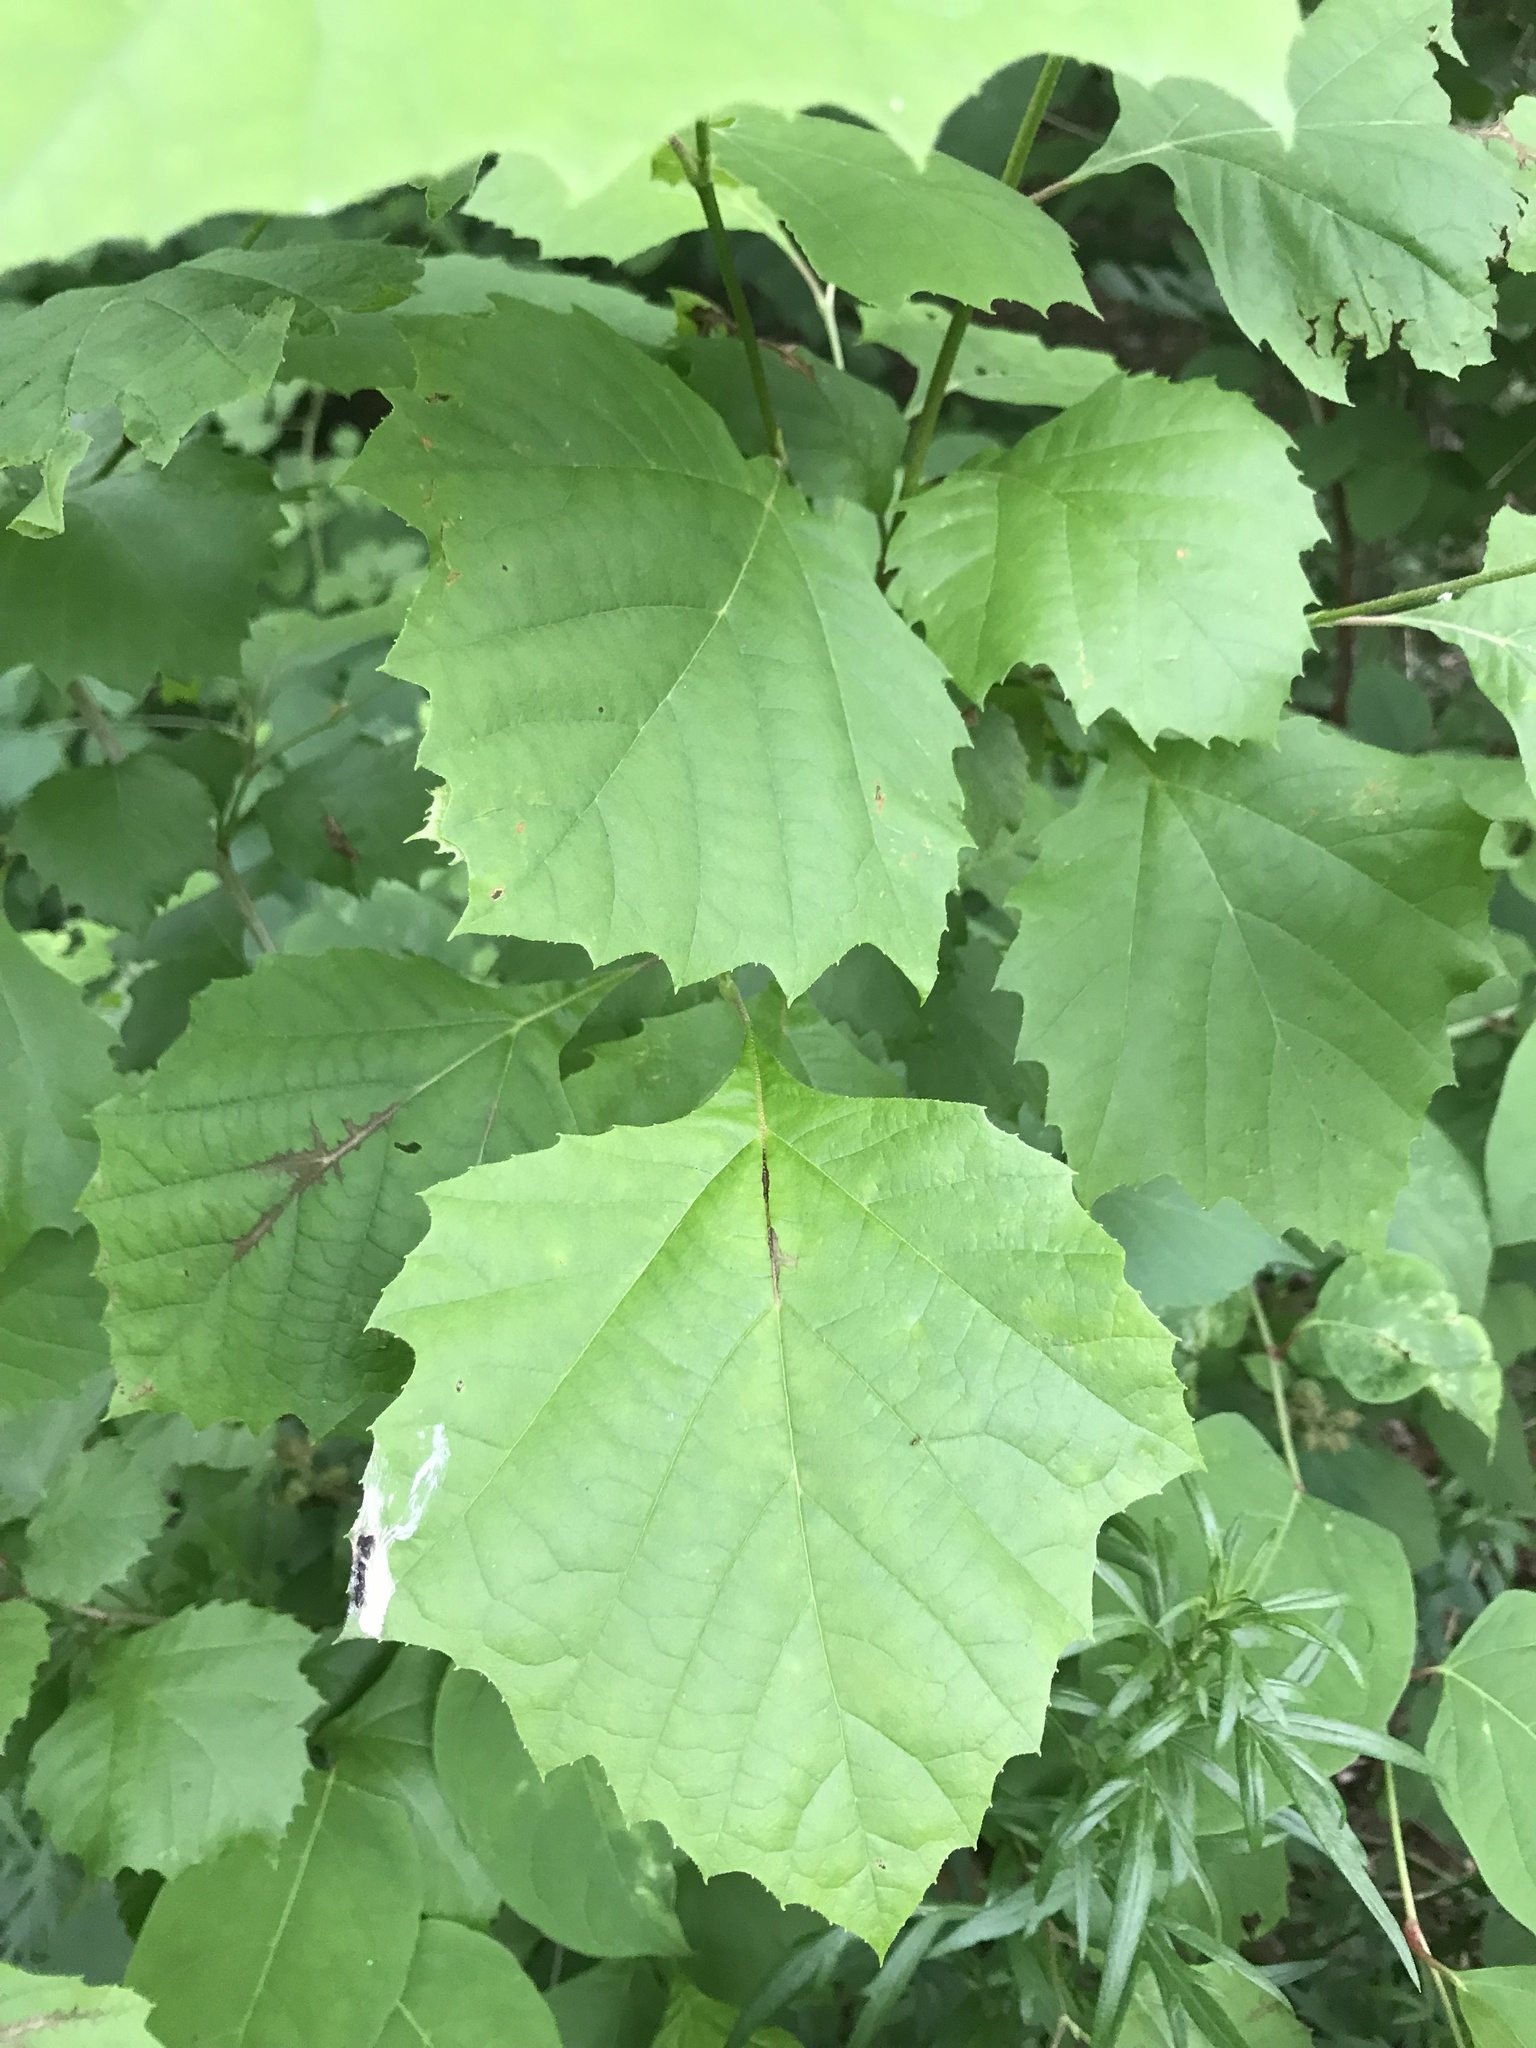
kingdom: Plantae
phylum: Tracheophyta
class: Magnoliopsida
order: Proteales
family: Platanaceae
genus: Platanus
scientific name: Platanus occidentalis
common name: American sycamore
